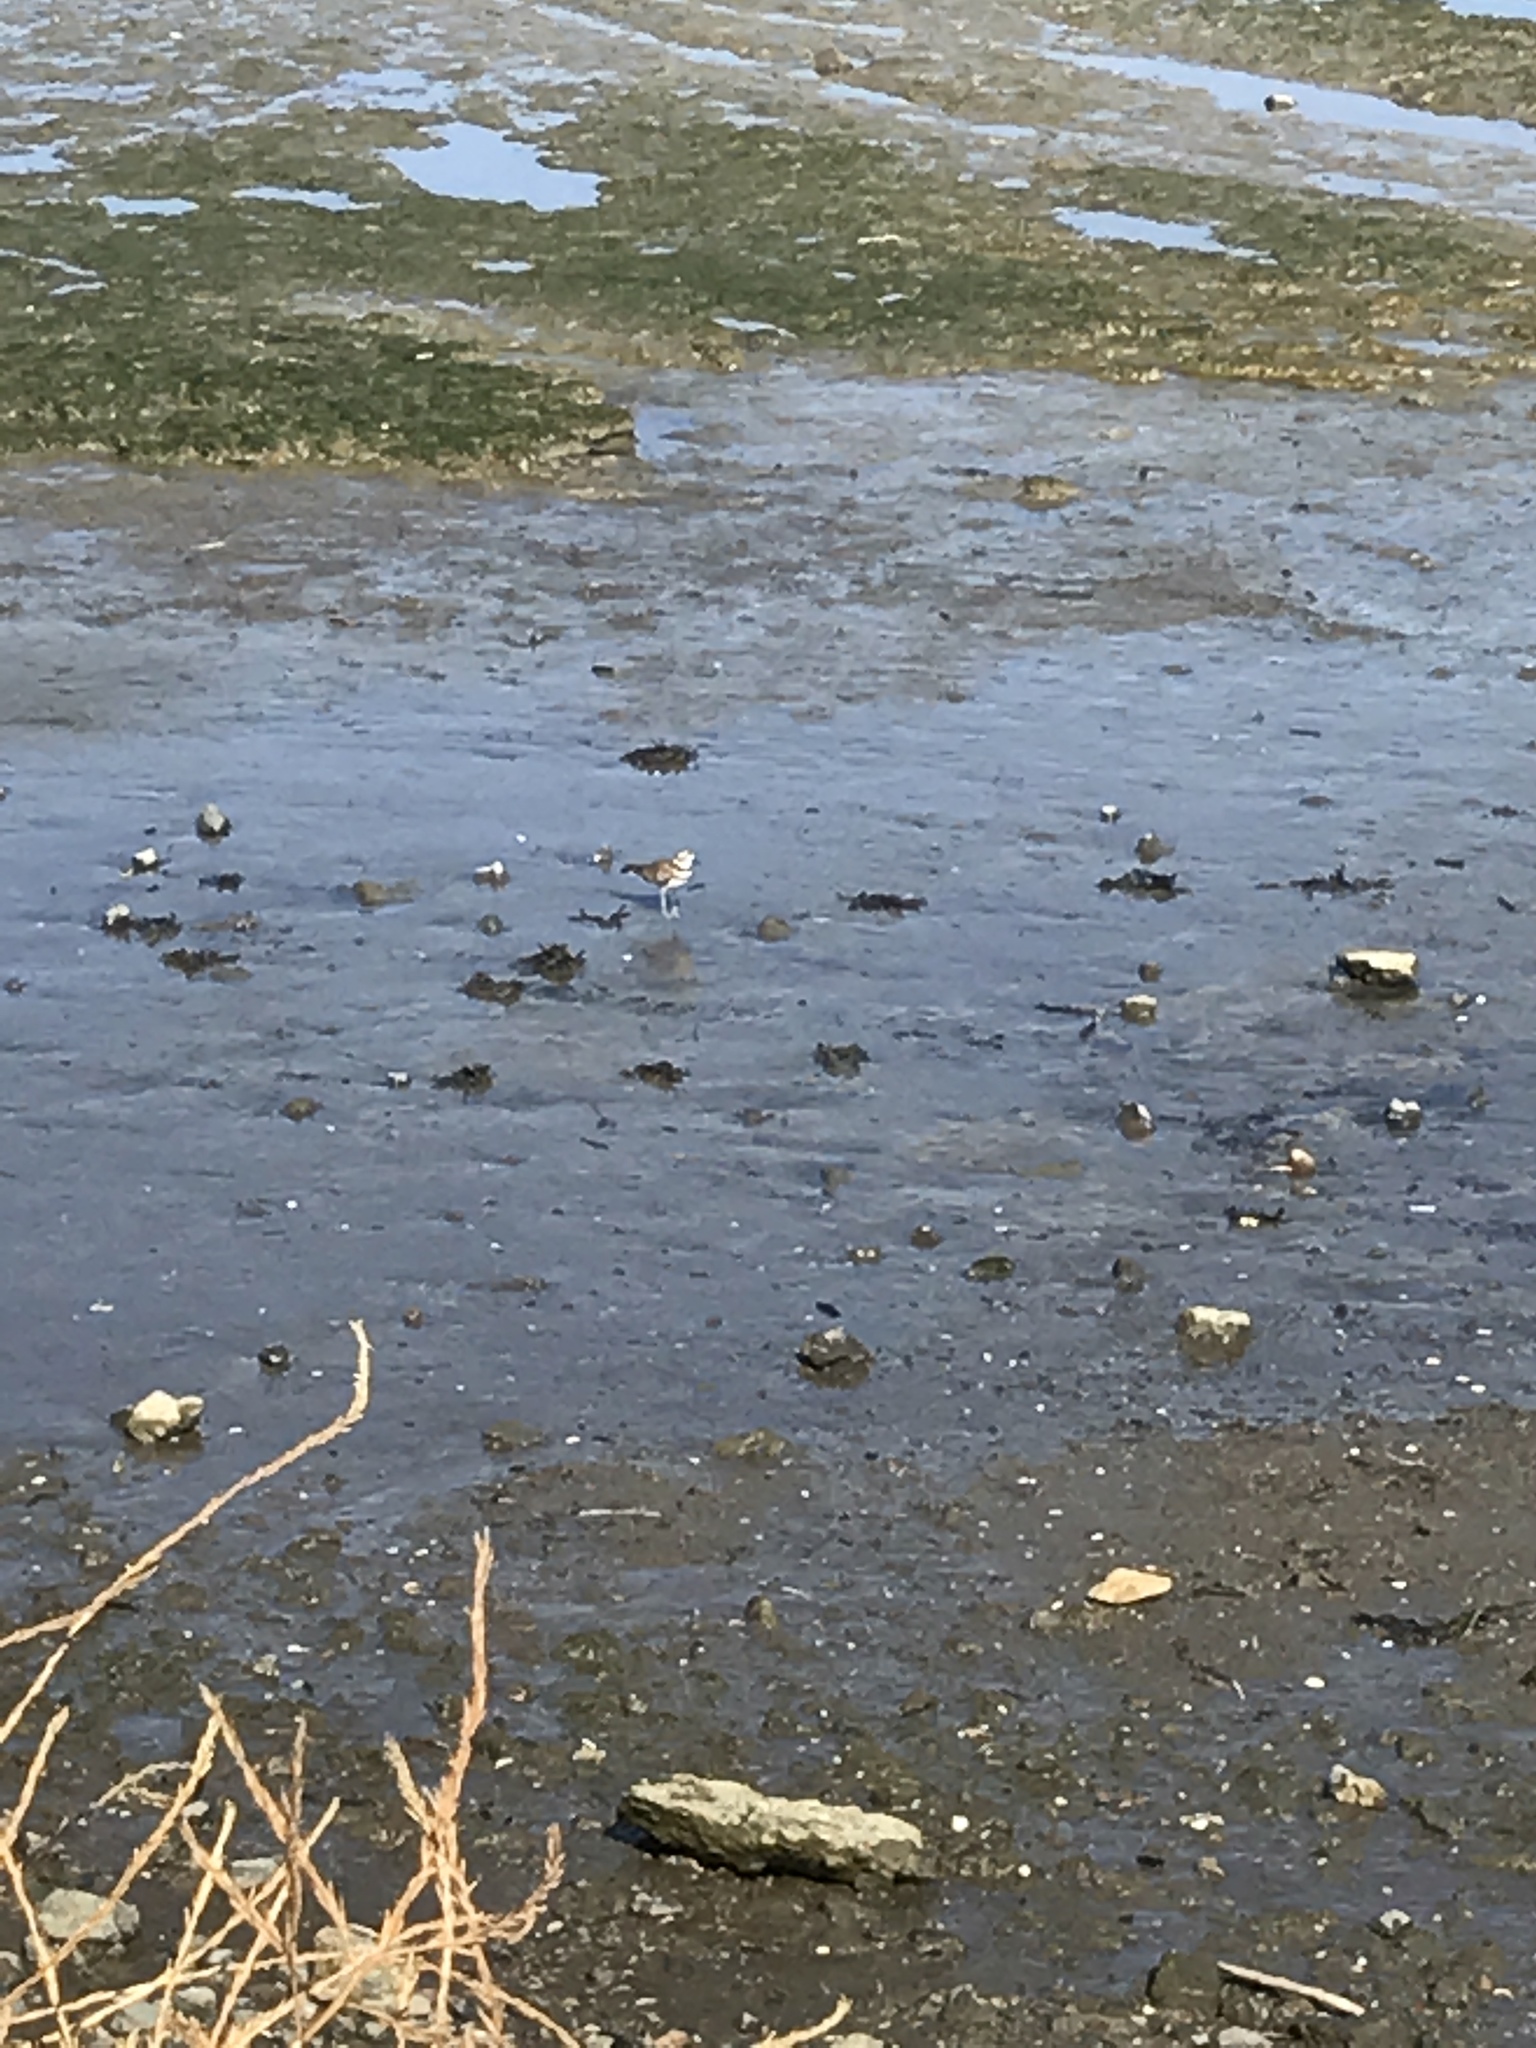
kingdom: Animalia
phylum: Chordata
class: Aves
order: Charadriiformes
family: Charadriidae
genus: Charadrius
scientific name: Charadrius vociferus
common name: Killdeer
